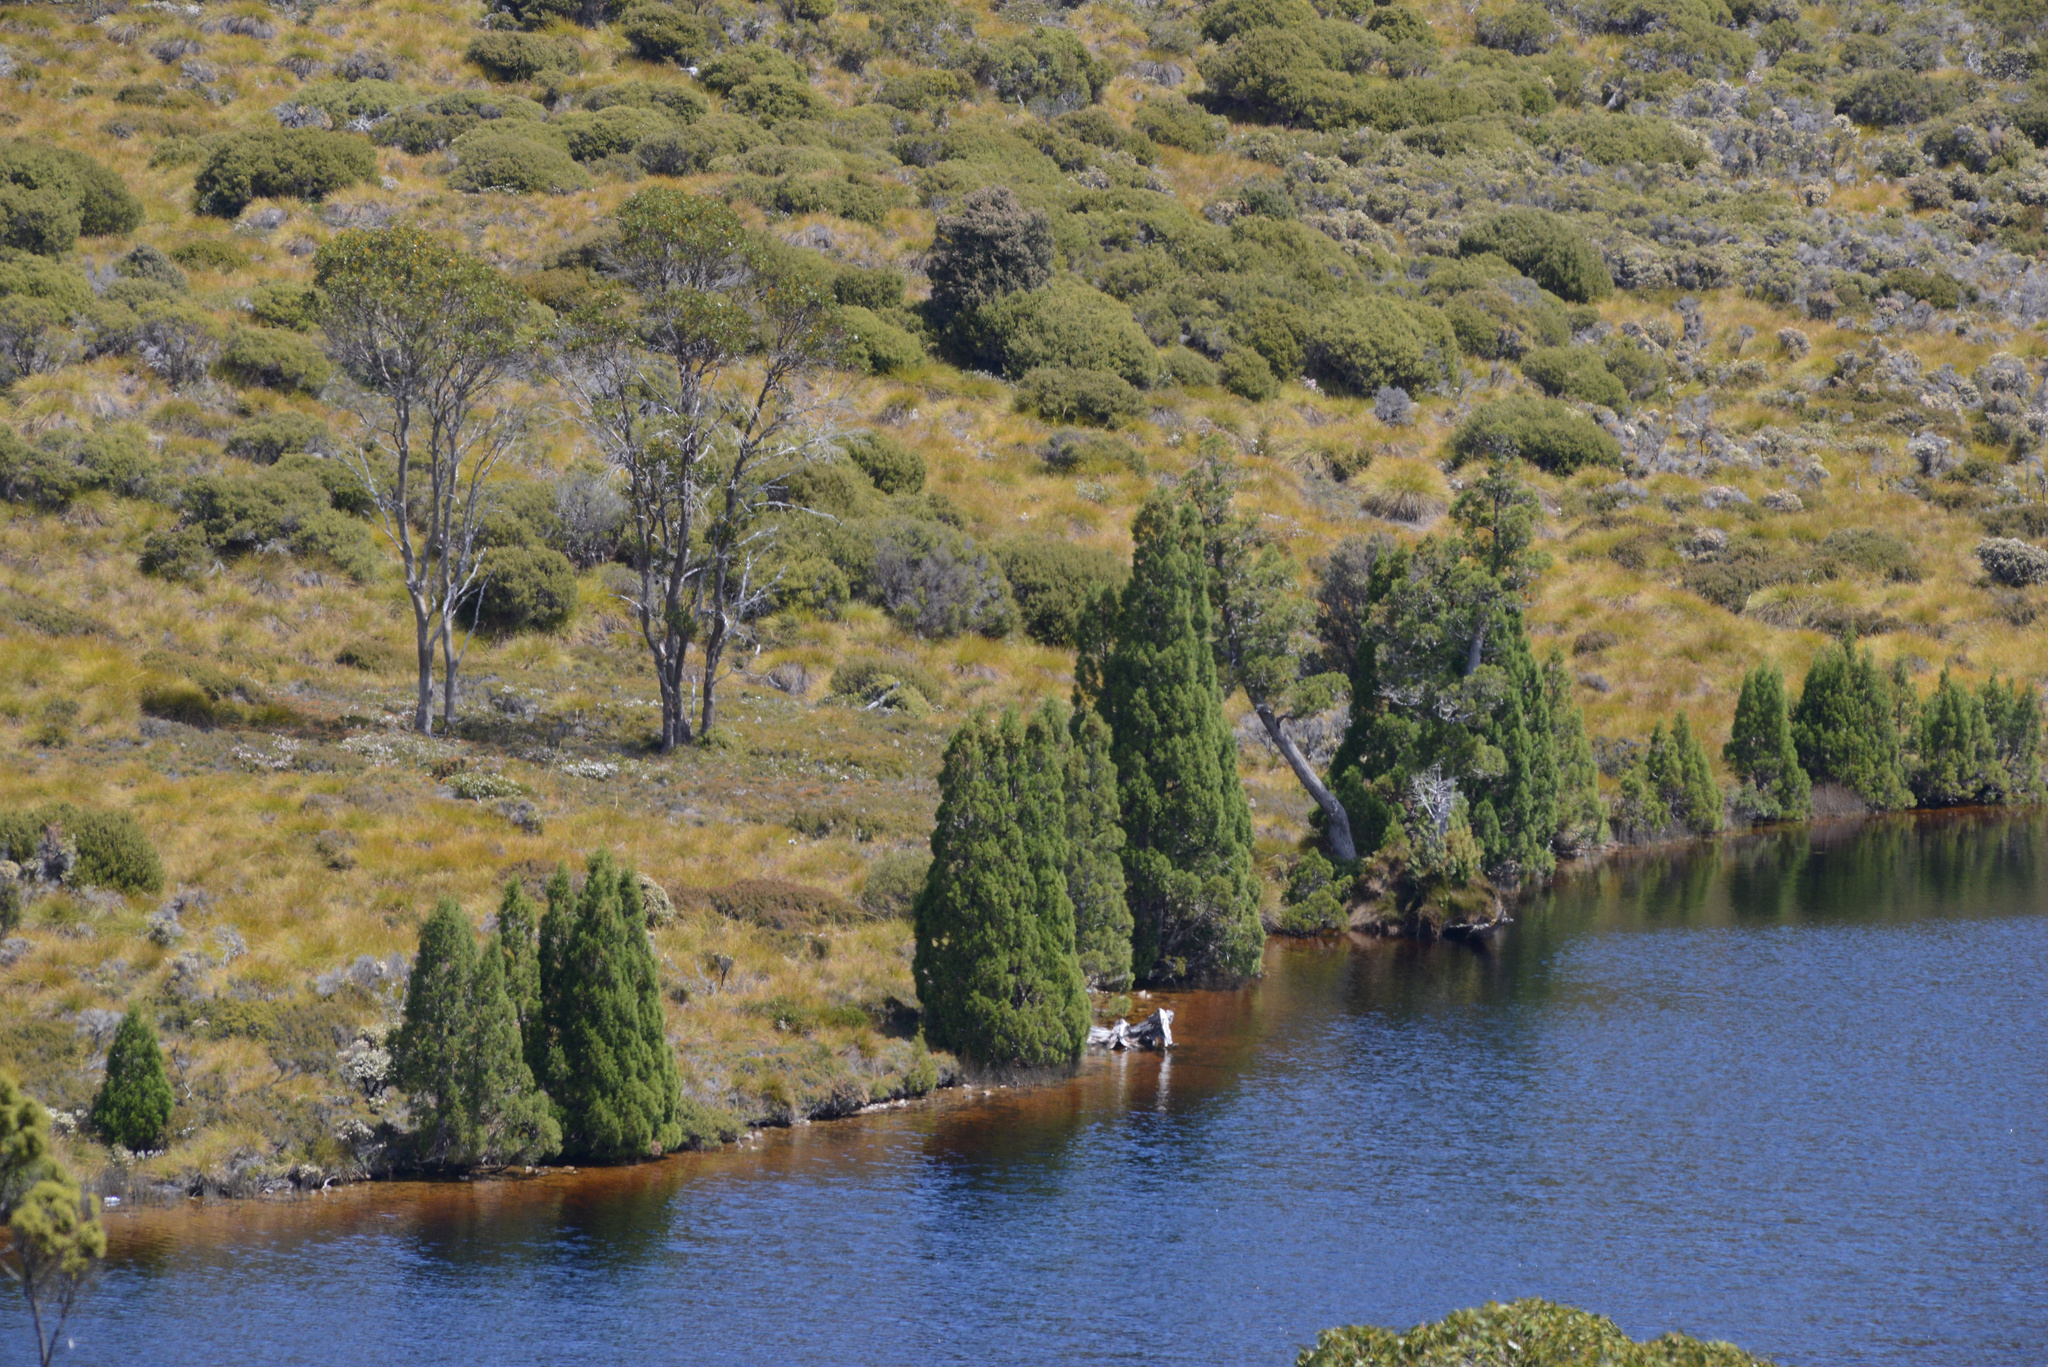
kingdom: Plantae
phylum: Tracheophyta
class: Pinopsida
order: Pinales
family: Cupressaceae
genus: Athrotaxis
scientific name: Athrotaxis cupressoides
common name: Tasmanian pencil pine
